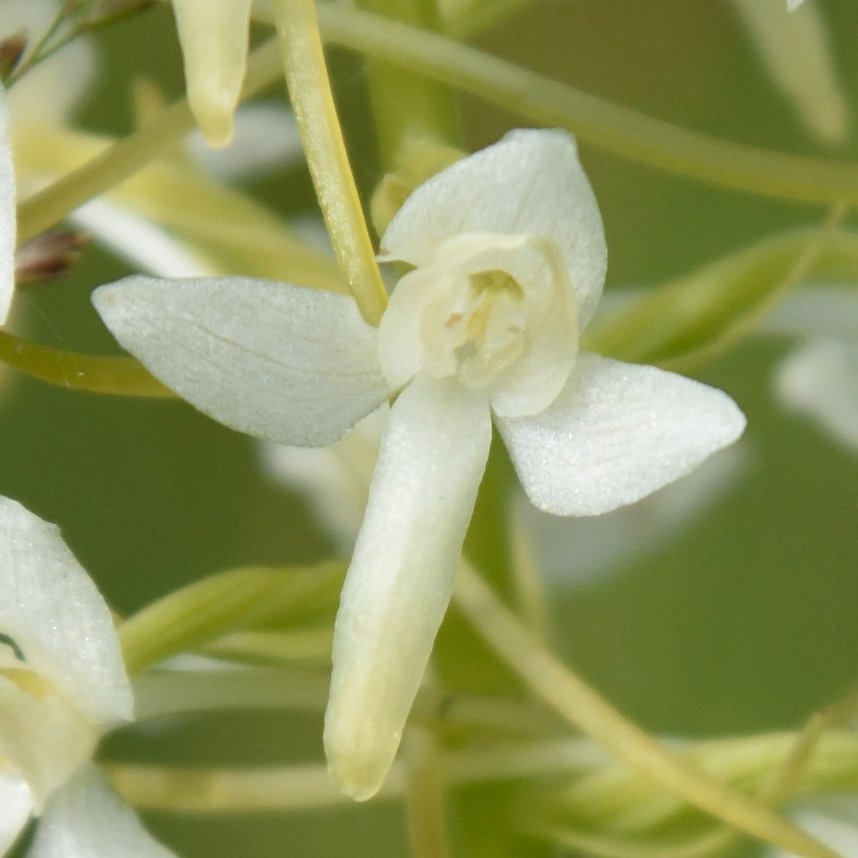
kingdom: Plantae
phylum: Tracheophyta
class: Liliopsida
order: Asparagales
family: Orchidaceae
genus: Platanthera
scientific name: Platanthera bifolia
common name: Lesser butterfly-orchid
